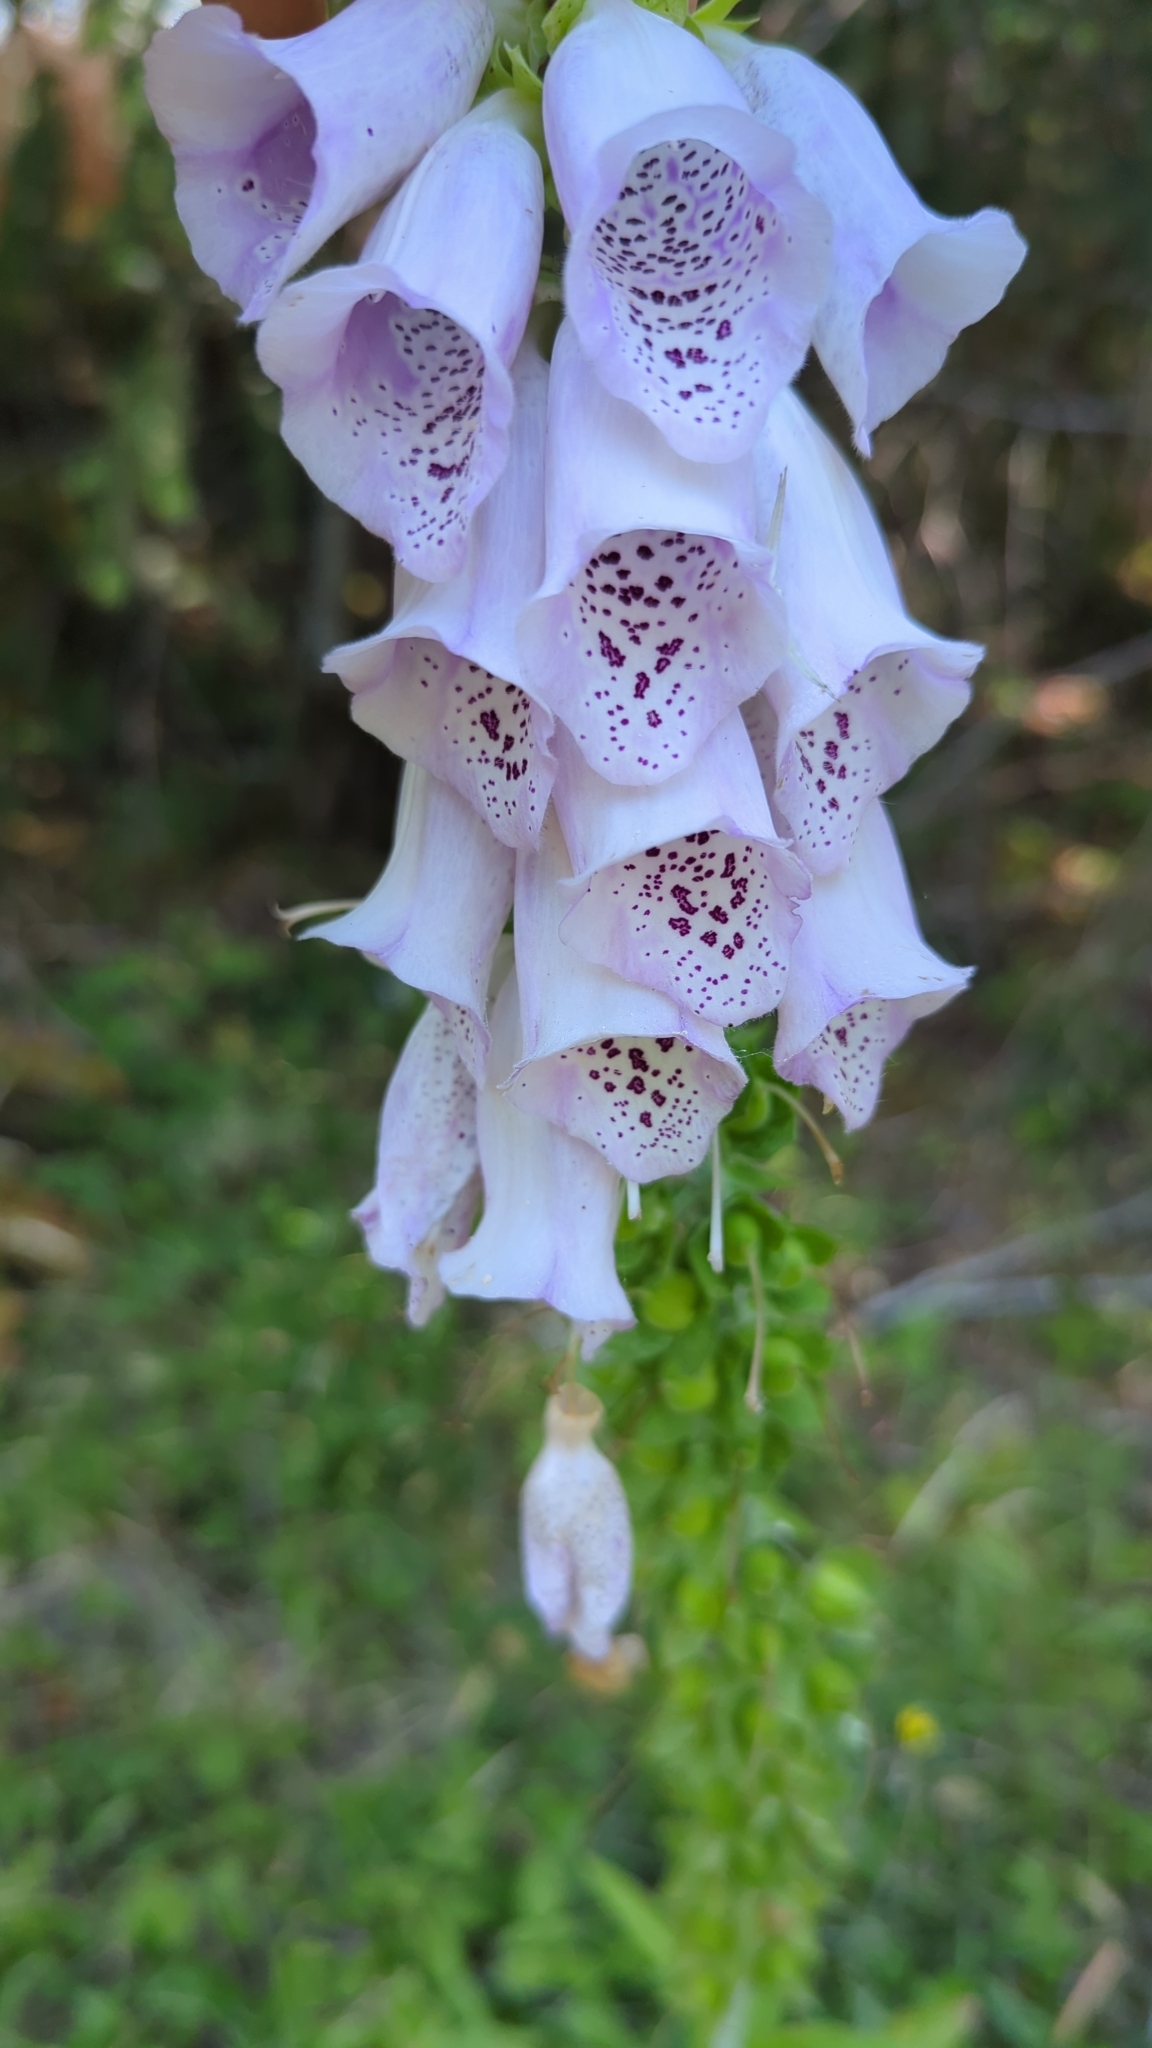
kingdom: Plantae
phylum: Tracheophyta
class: Magnoliopsida
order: Lamiales
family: Plantaginaceae
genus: Digitalis
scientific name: Digitalis purpurea
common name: Foxglove
